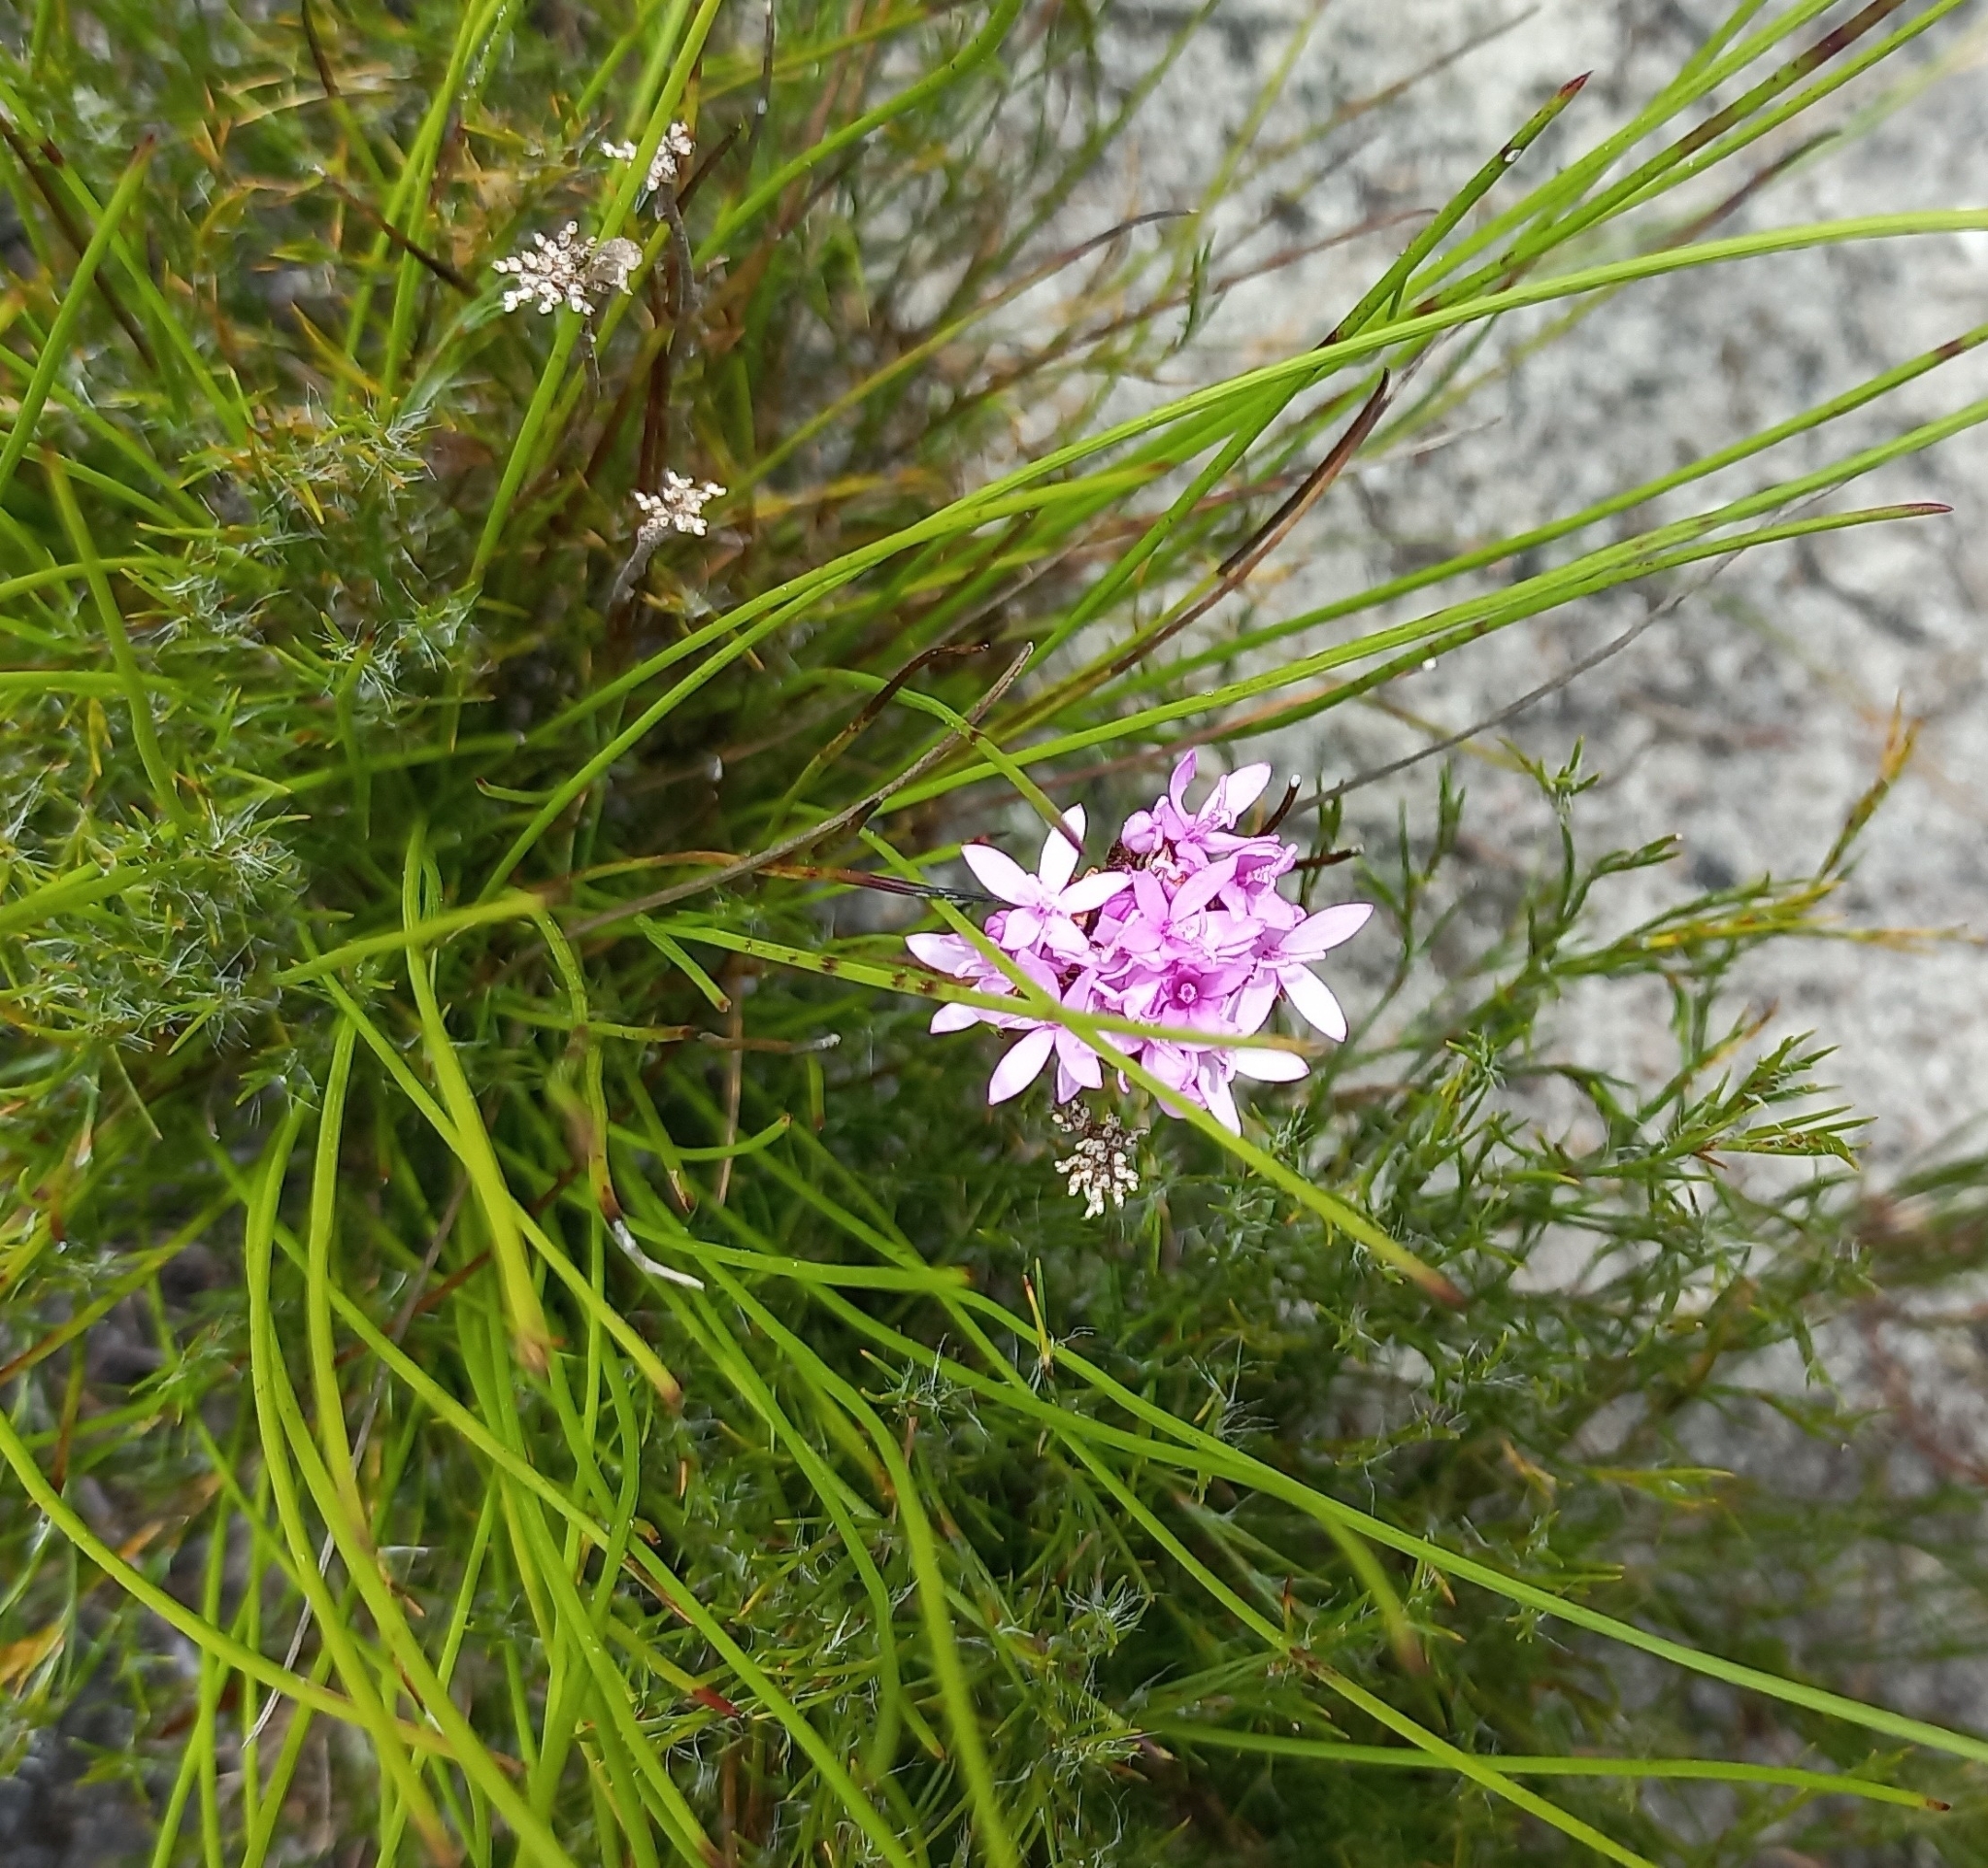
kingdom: Plantae
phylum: Tracheophyta
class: Magnoliopsida
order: Asterales
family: Asteraceae
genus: Corymbium
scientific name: Corymbium africanum
